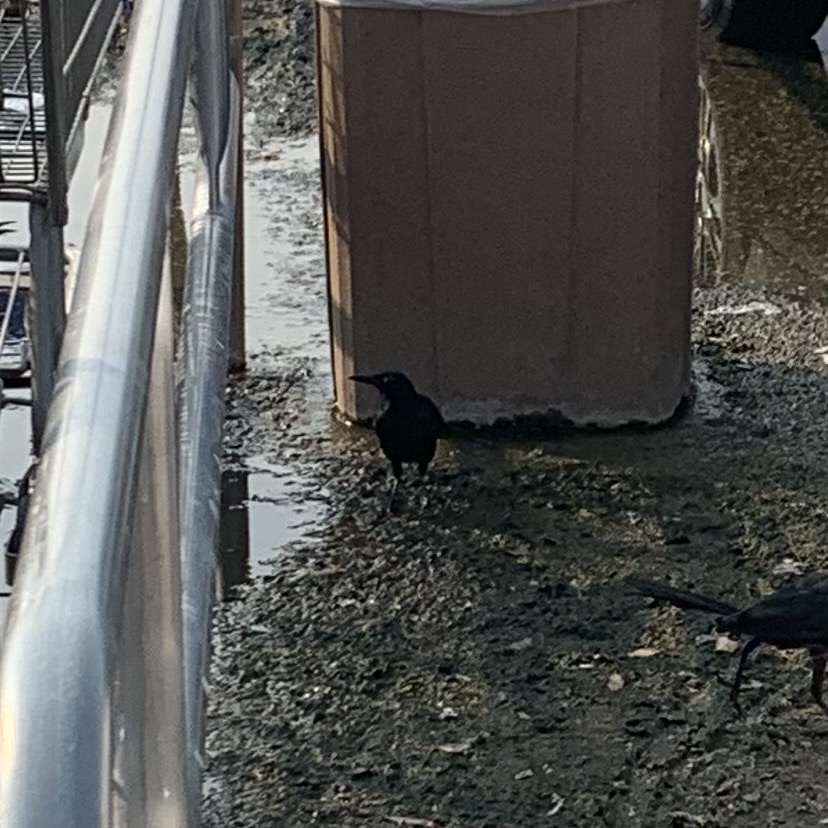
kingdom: Animalia
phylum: Chordata
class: Aves
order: Passeriformes
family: Icteridae
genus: Quiscalus
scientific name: Quiscalus mexicanus
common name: Great-tailed grackle
